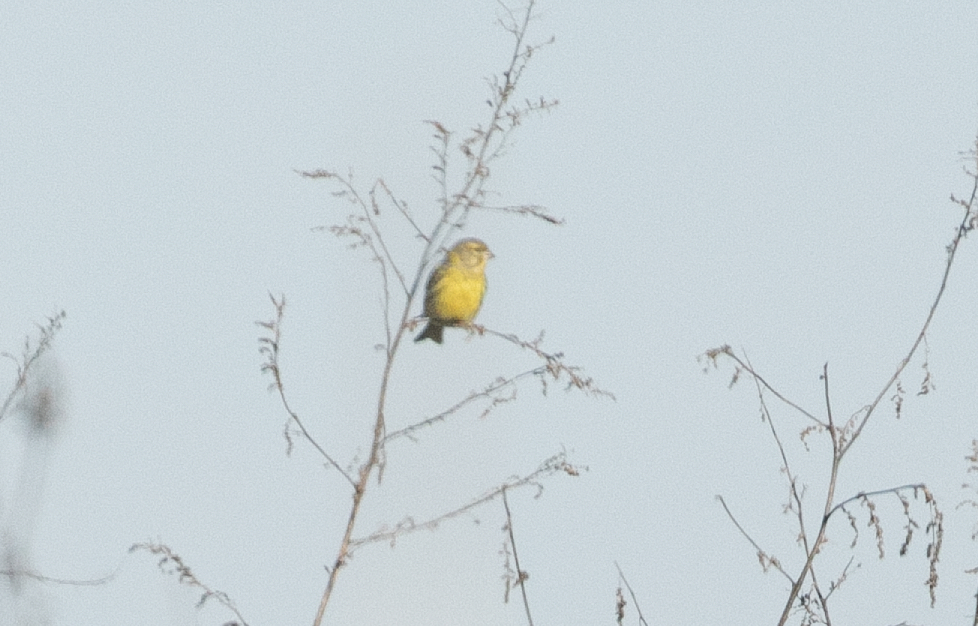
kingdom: Animalia
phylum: Chordata
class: Aves
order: Passeriformes
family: Fringillidae
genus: Serinus
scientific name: Serinus serinus
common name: European serin
